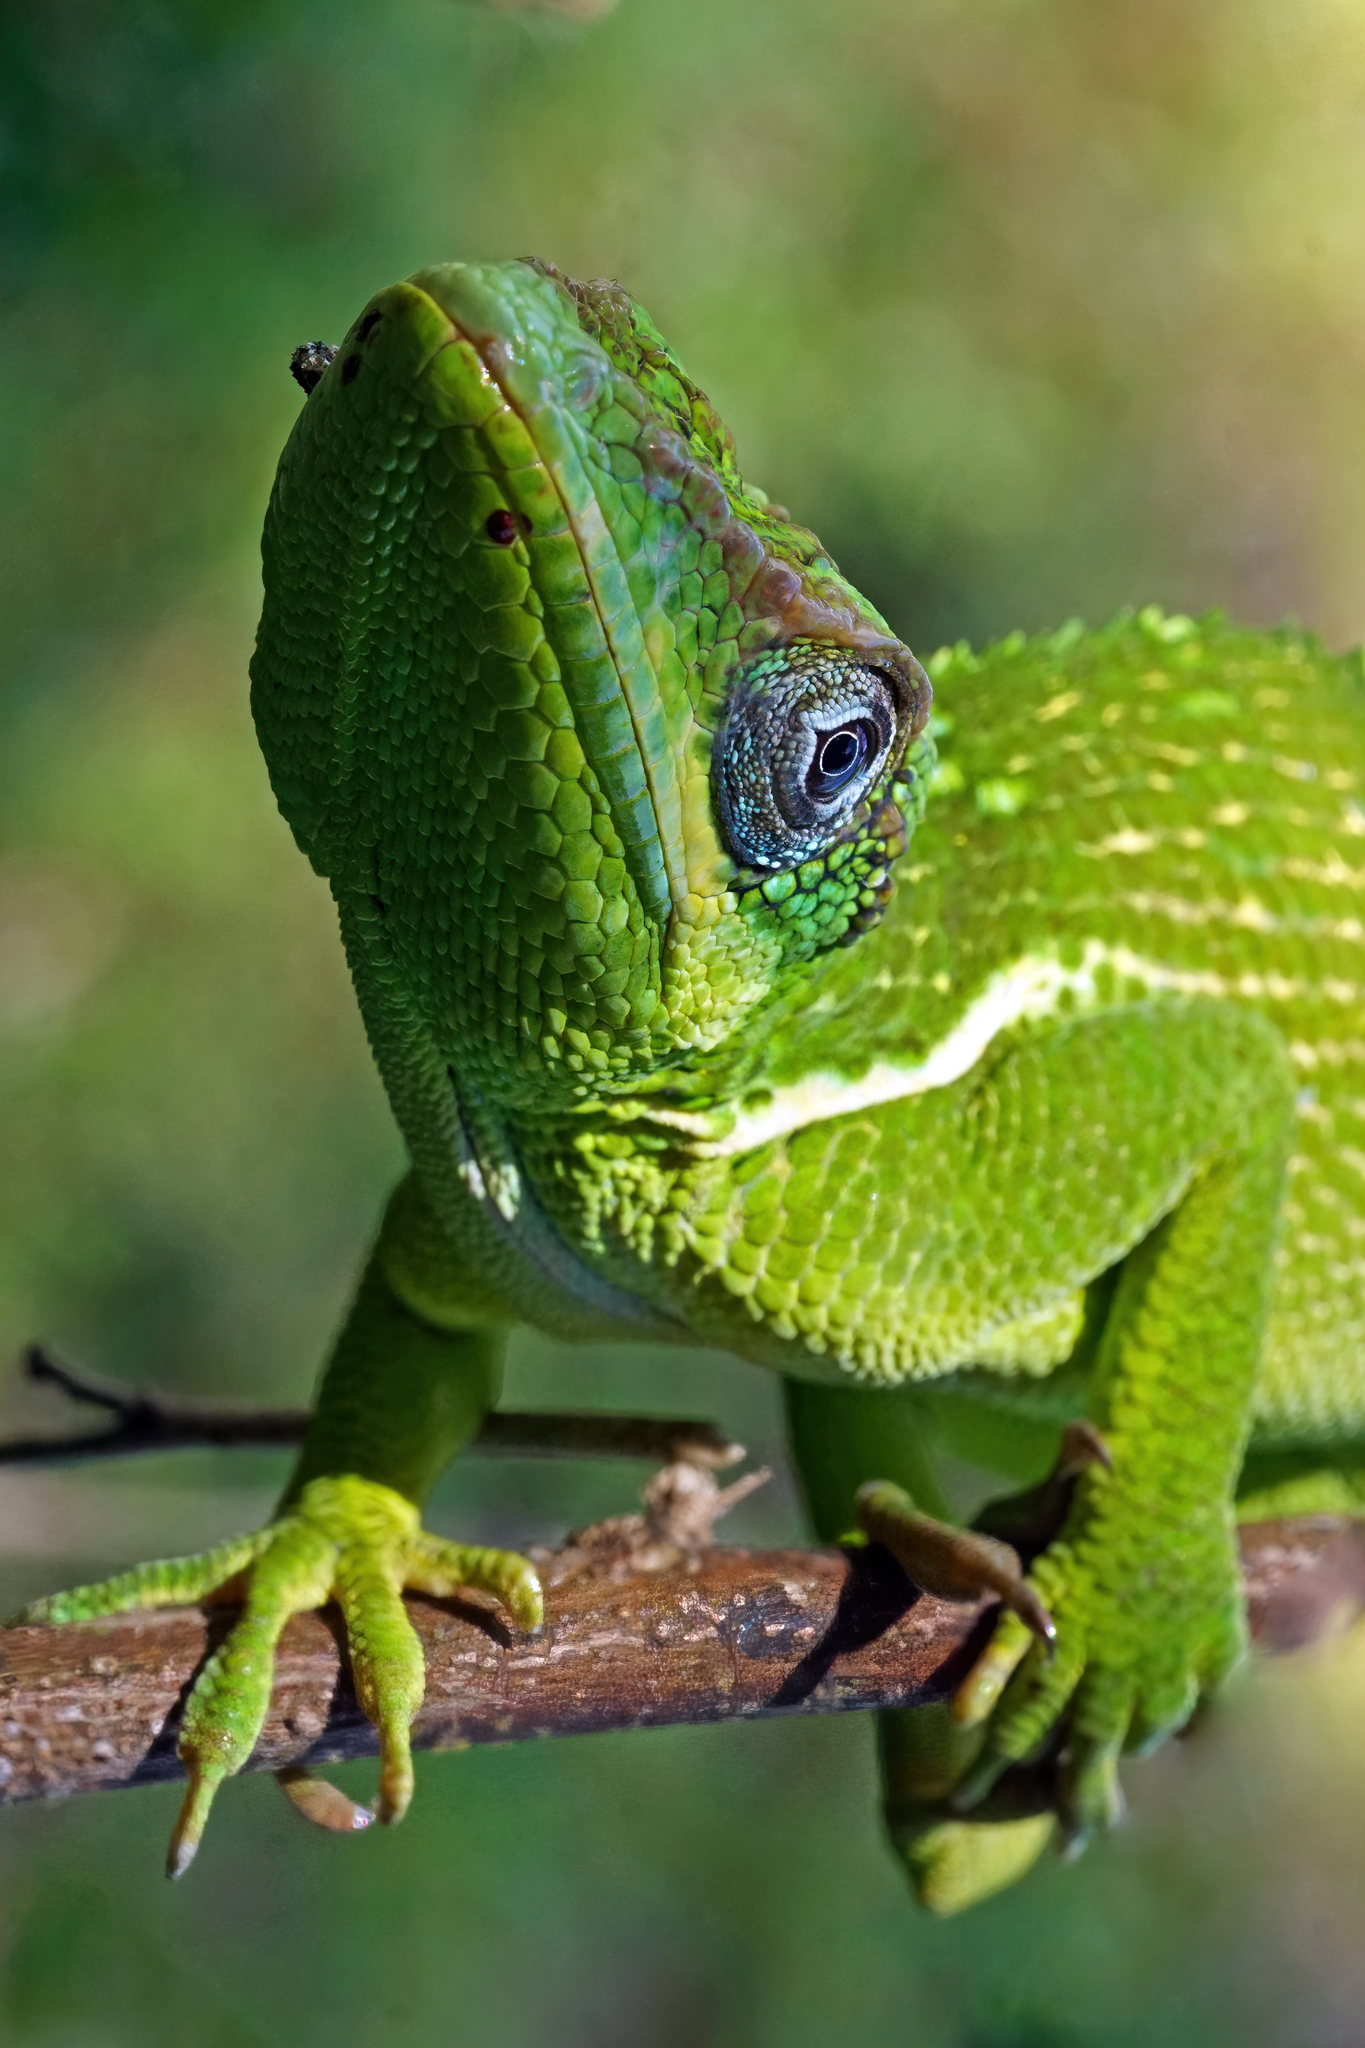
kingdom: Animalia
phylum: Chordata
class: Squamata
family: Dactyloidae
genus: Anolis
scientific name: Anolis equestris
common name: Knight anole
